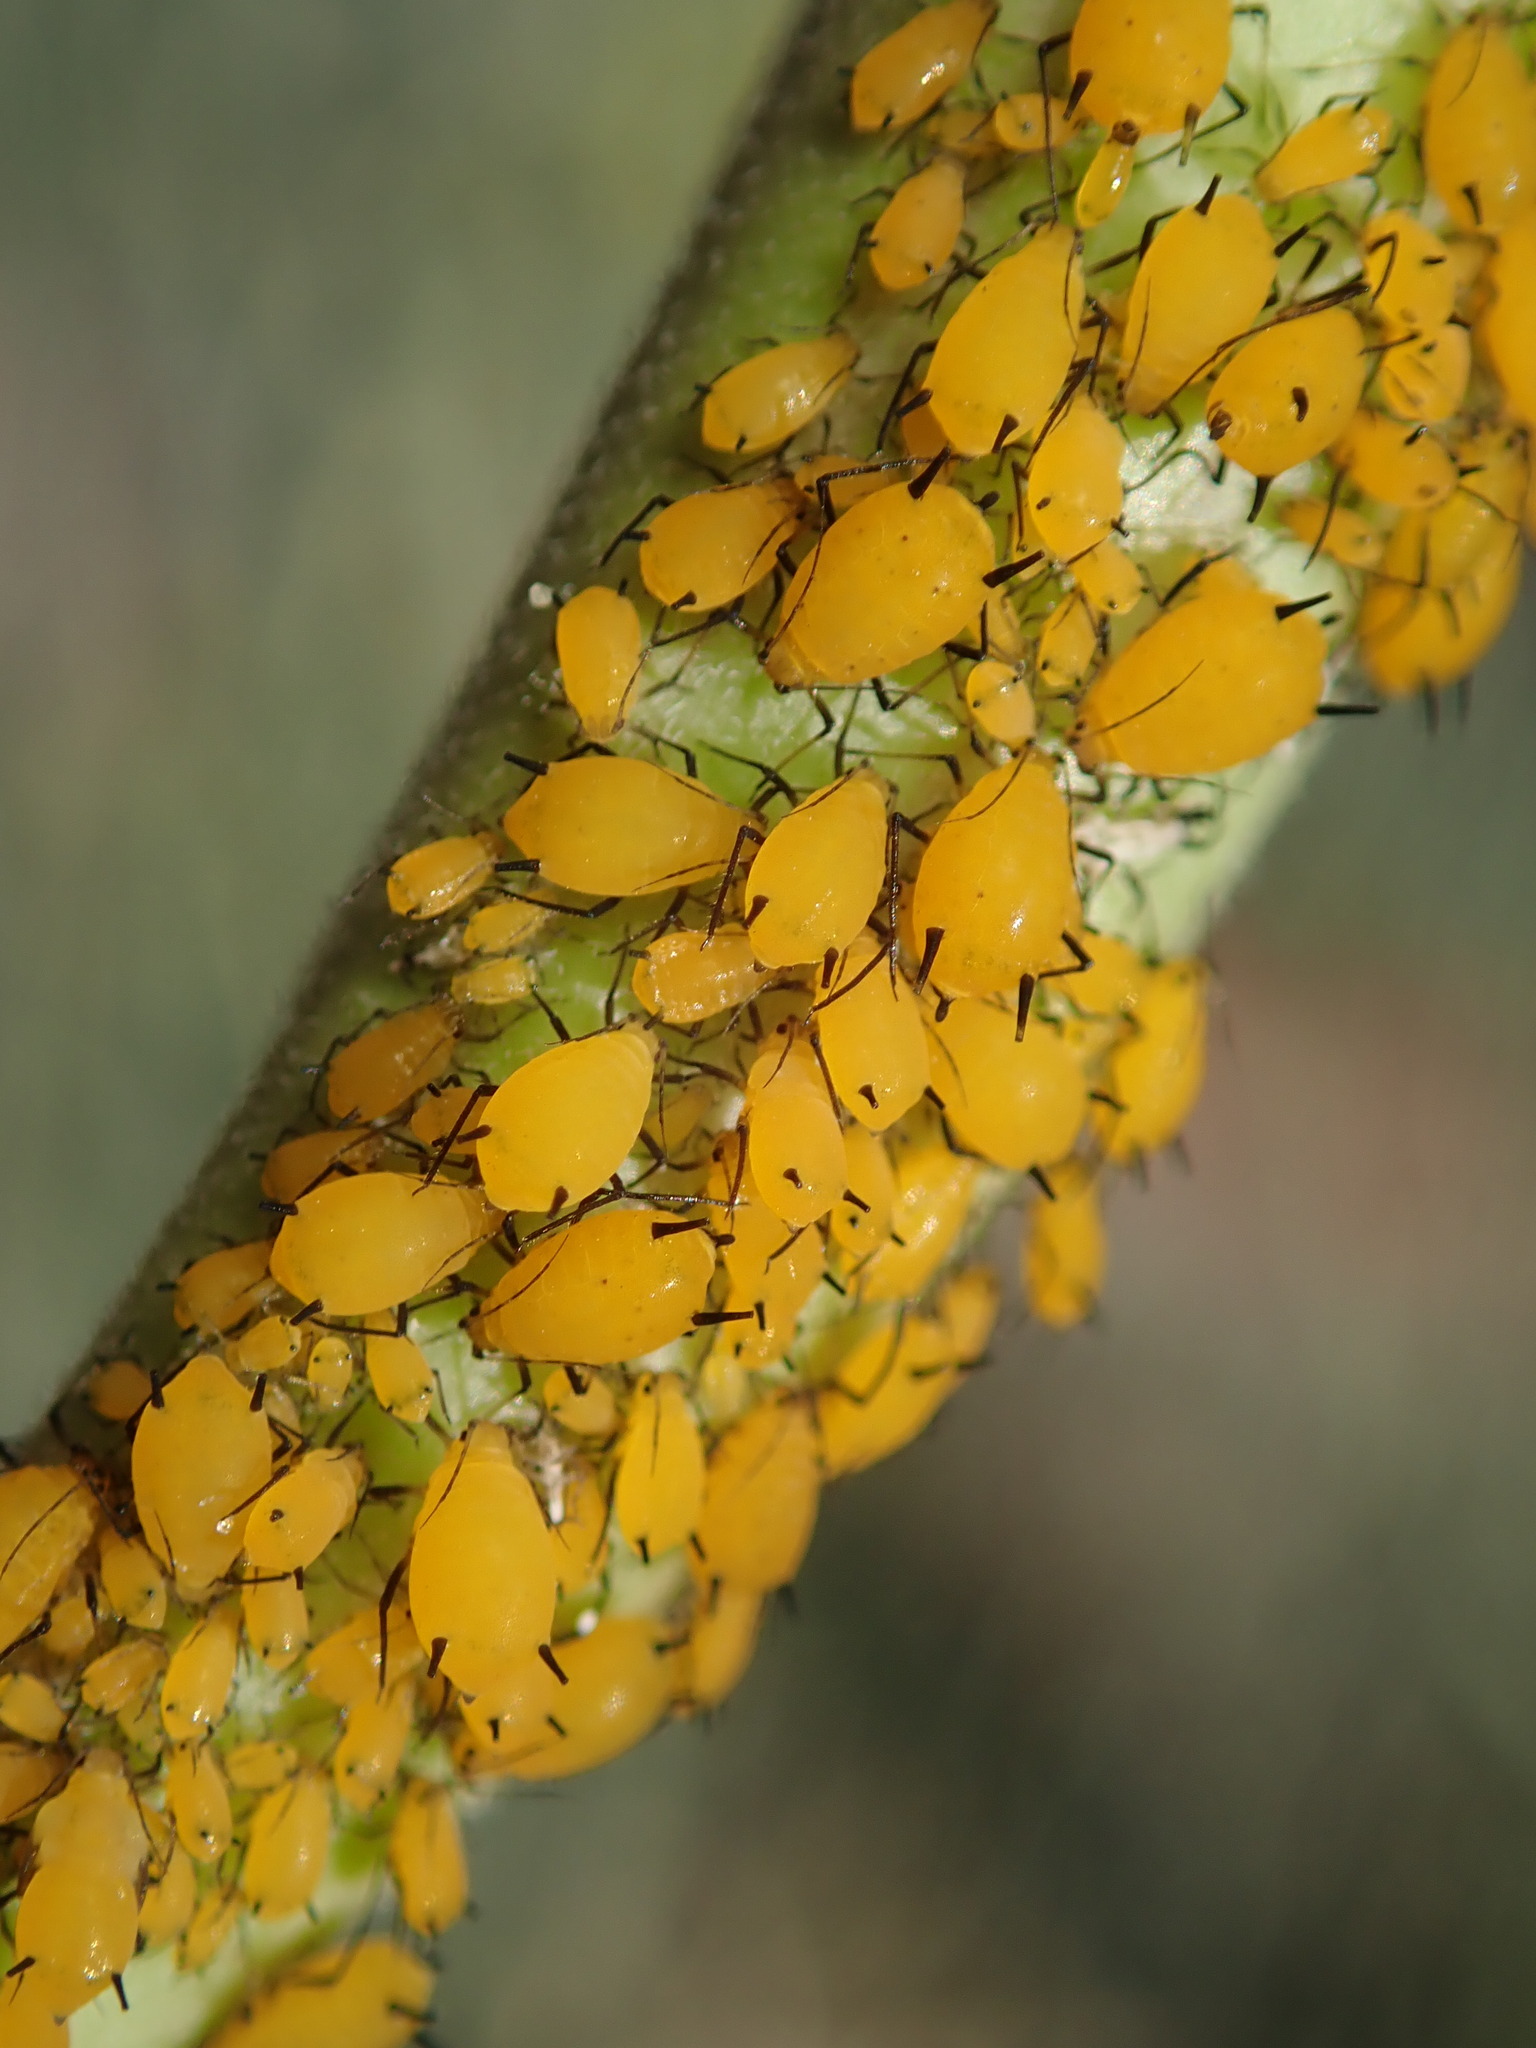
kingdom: Animalia
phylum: Arthropoda
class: Insecta
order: Hemiptera
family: Aphididae
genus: Aphis
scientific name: Aphis nerii
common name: Oleander aphid
